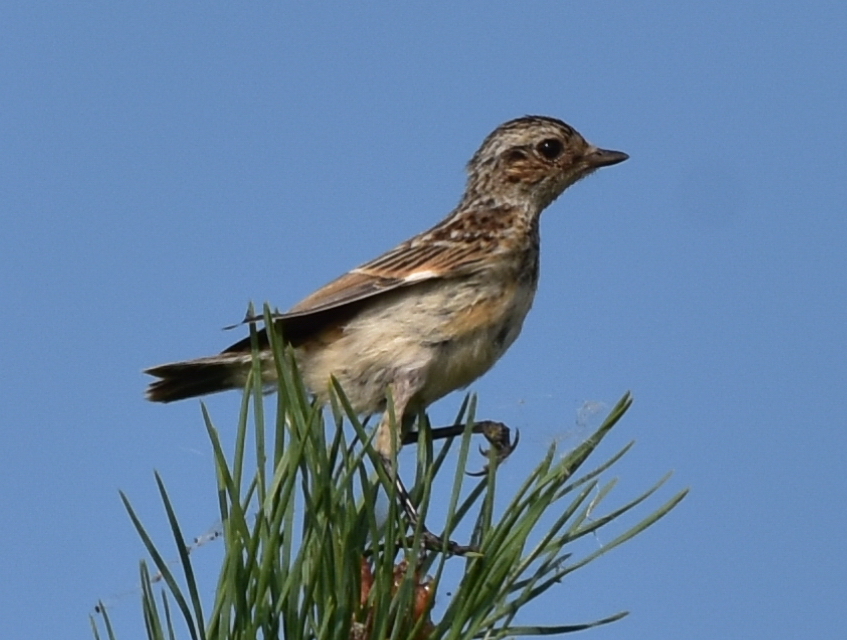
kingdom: Animalia
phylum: Chordata
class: Aves
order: Passeriformes
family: Muscicapidae
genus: Saxicola
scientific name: Saxicola rubetra
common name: Whinchat
